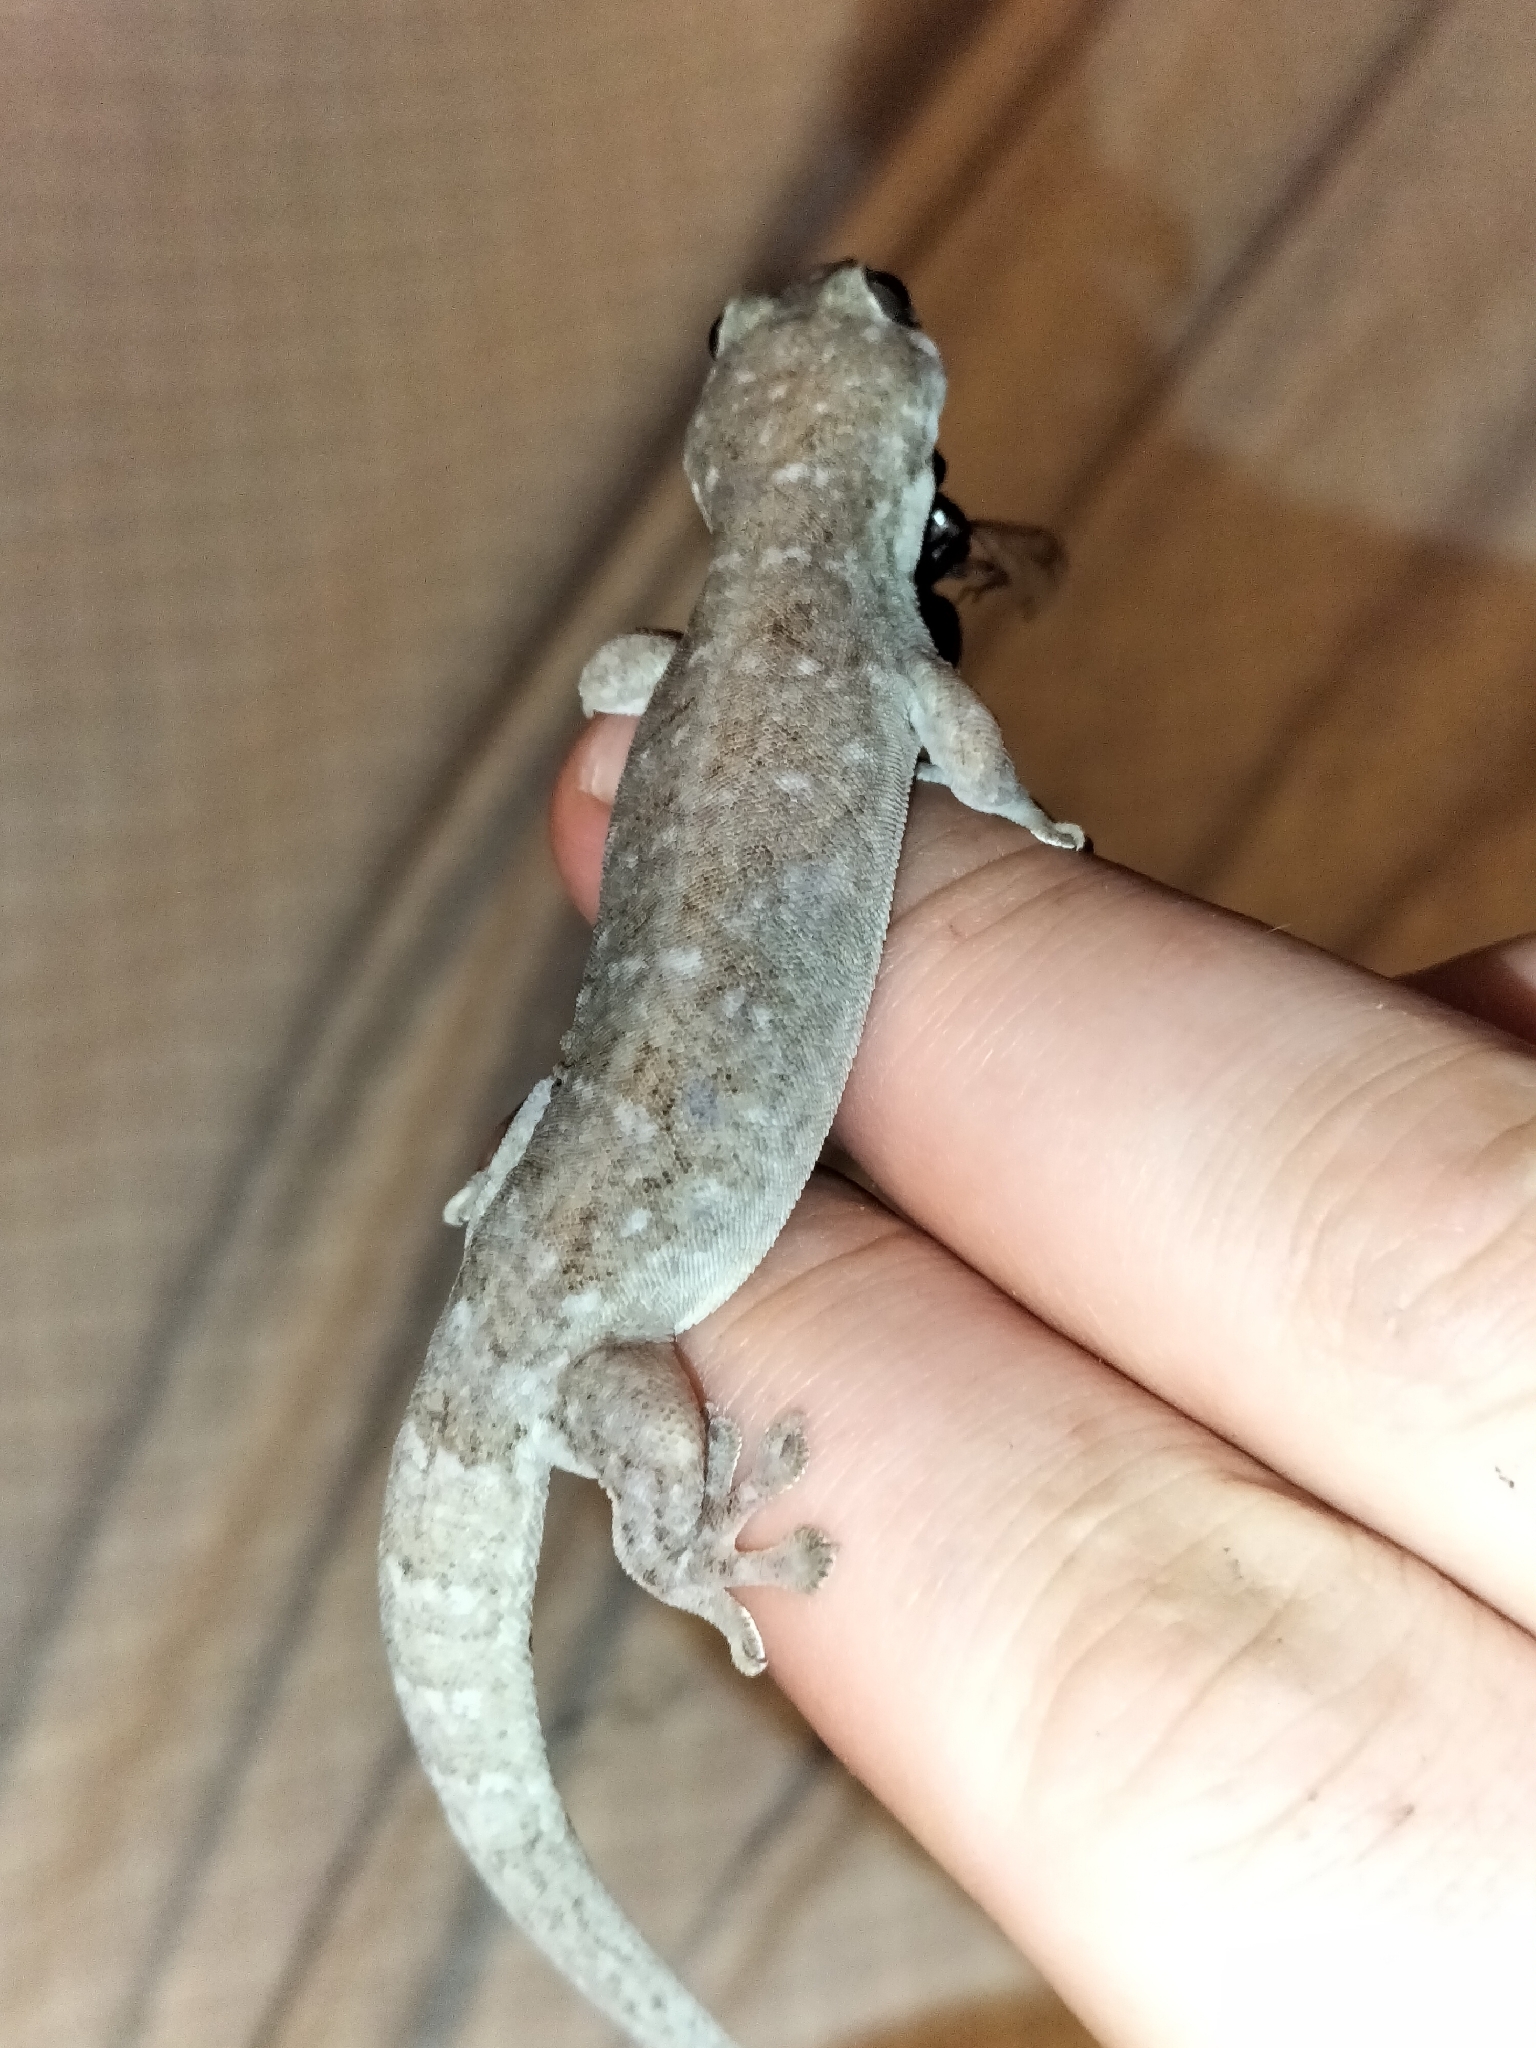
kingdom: Animalia
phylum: Chordata
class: Squamata
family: Gekkonidae
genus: Gehyra
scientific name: Gehyra dubia
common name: Dubious dtella
